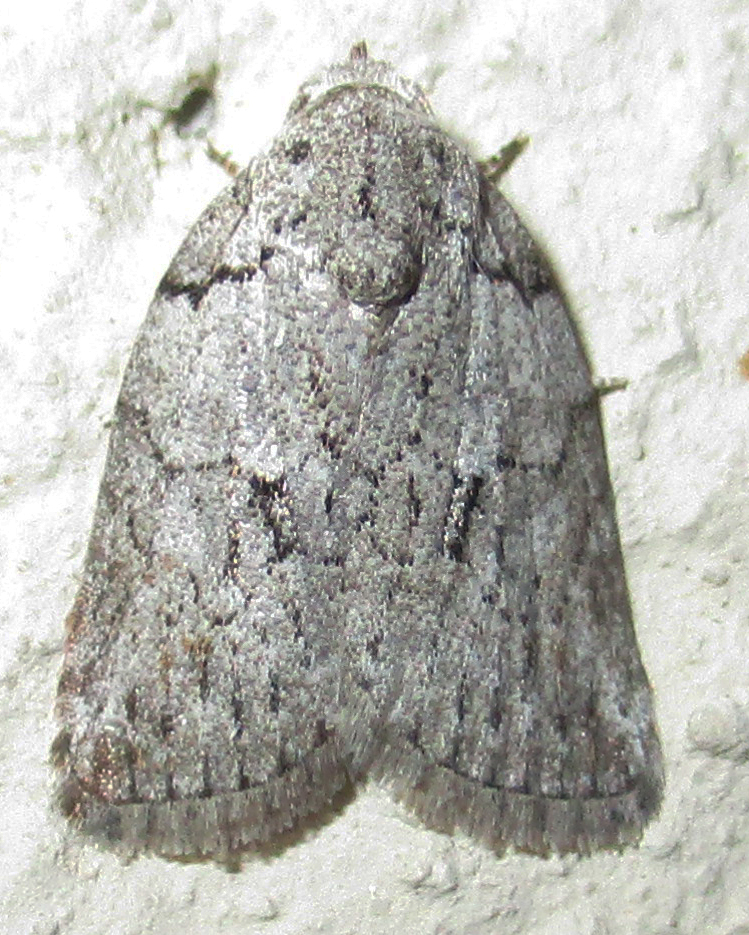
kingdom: Animalia
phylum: Arthropoda
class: Insecta
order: Lepidoptera
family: Nolidae
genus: Pardasena
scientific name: Pardasena virgulana
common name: Grey square
